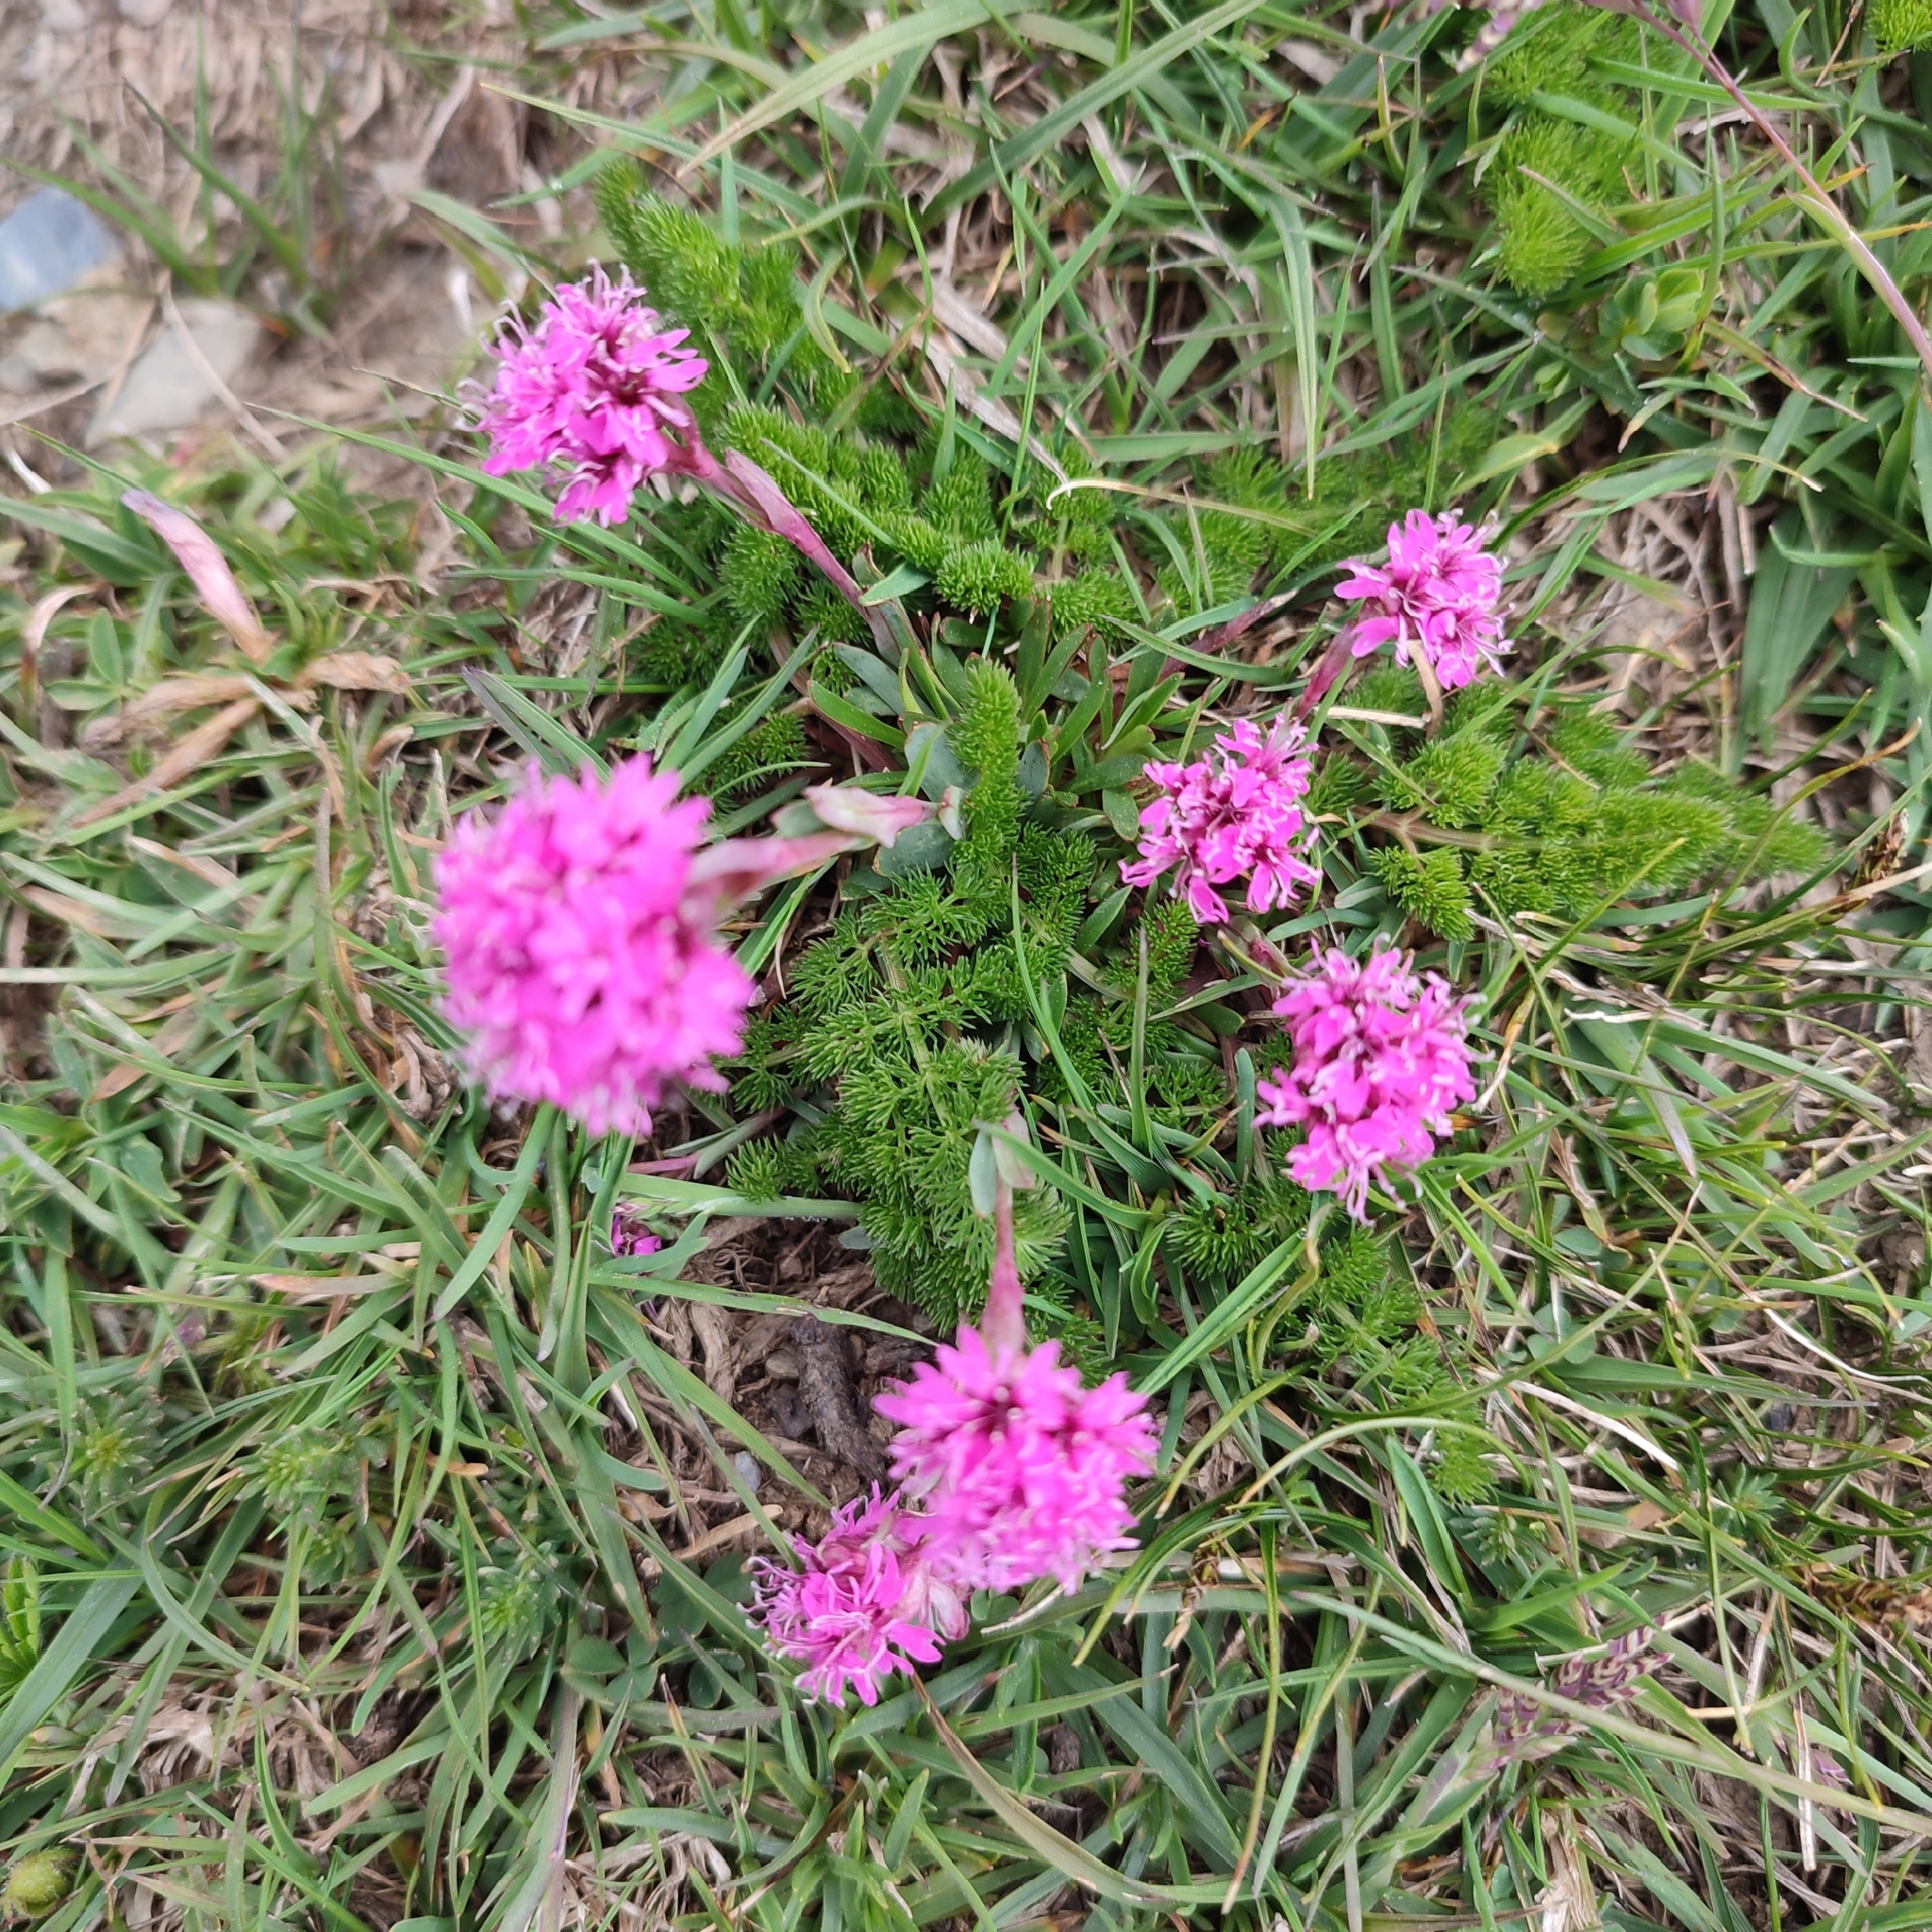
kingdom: Plantae
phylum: Tracheophyta
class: Magnoliopsida
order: Caryophyllales
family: Caryophyllaceae
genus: Viscaria
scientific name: Viscaria alpina
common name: Alpine campion
